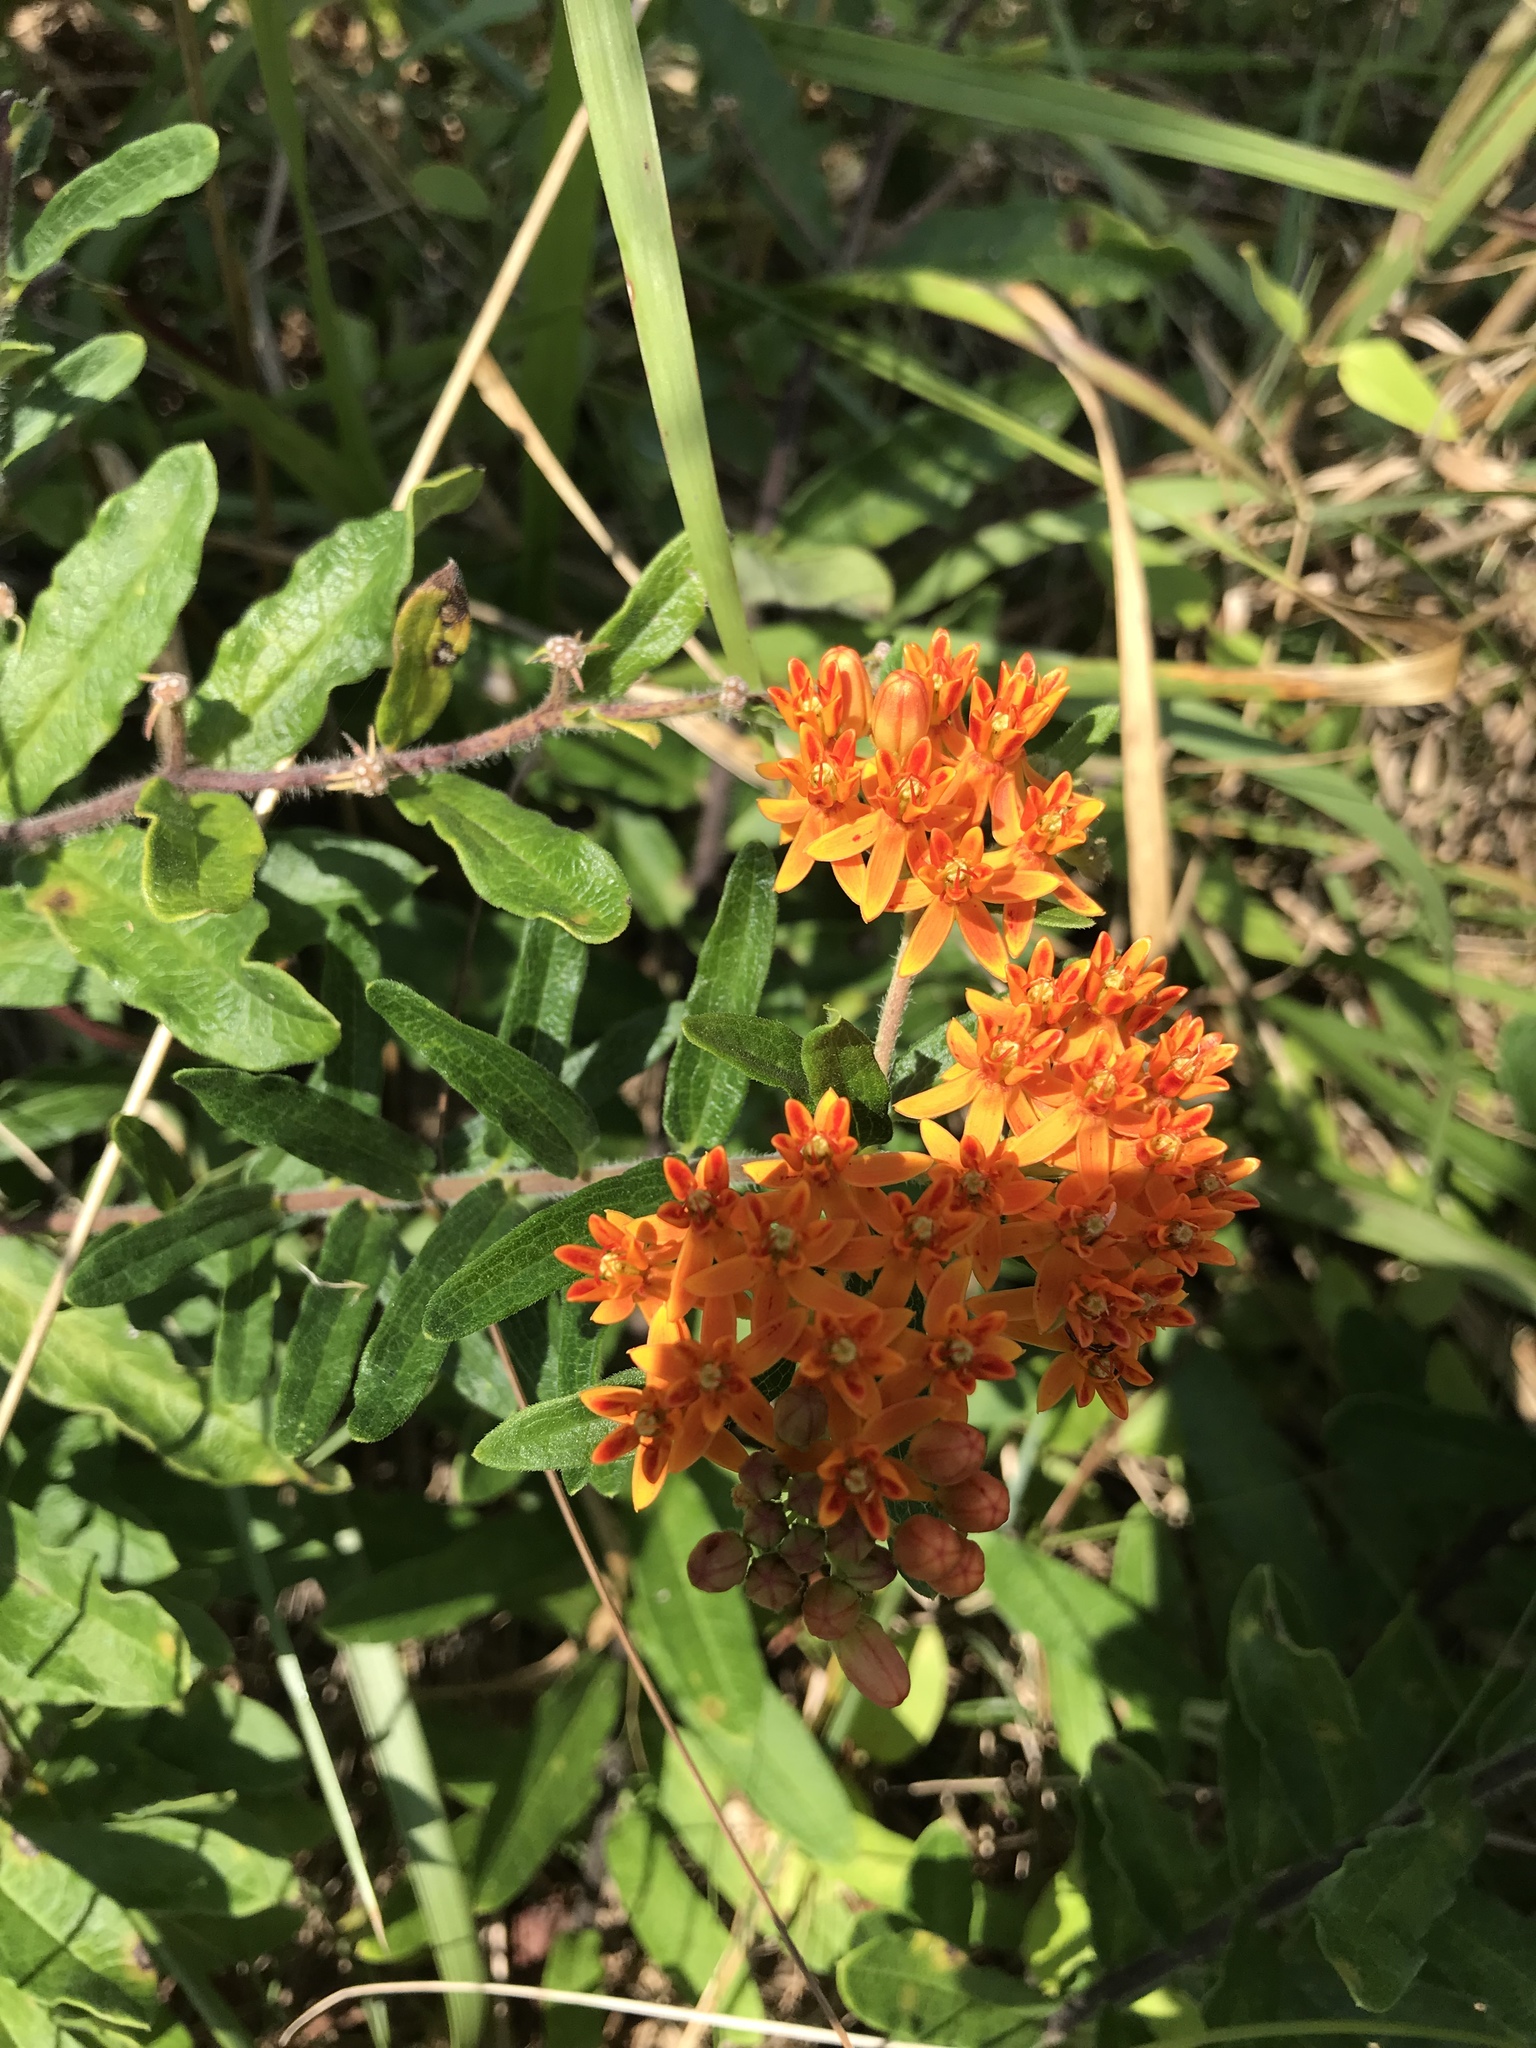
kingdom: Plantae
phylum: Tracheophyta
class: Magnoliopsida
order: Gentianales
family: Apocynaceae
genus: Asclepias
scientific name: Asclepias tuberosa
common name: Butterfly milkweed
